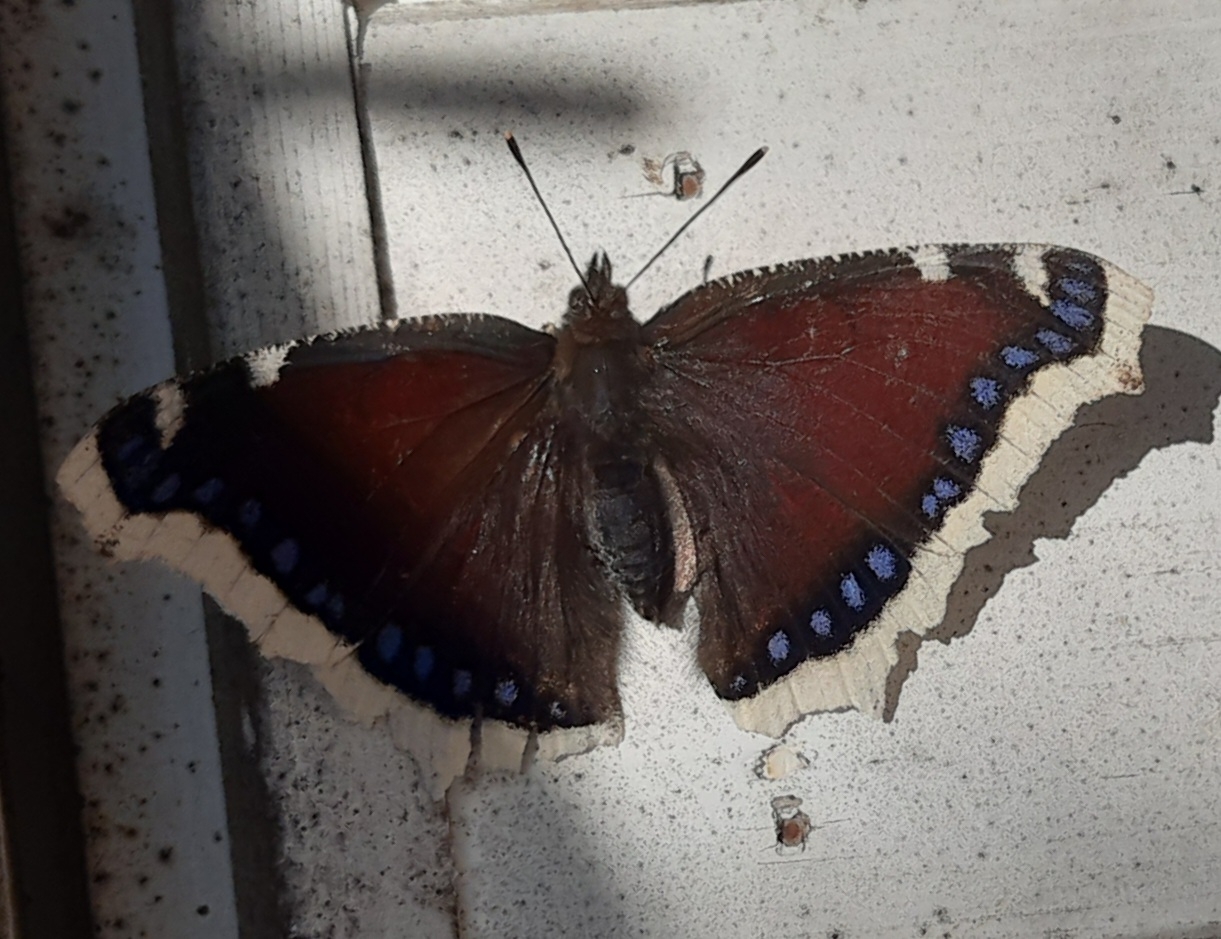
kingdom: Animalia
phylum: Arthropoda
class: Insecta
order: Lepidoptera
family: Nymphalidae
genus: Nymphalis
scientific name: Nymphalis antiopa
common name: Camberwell beauty
